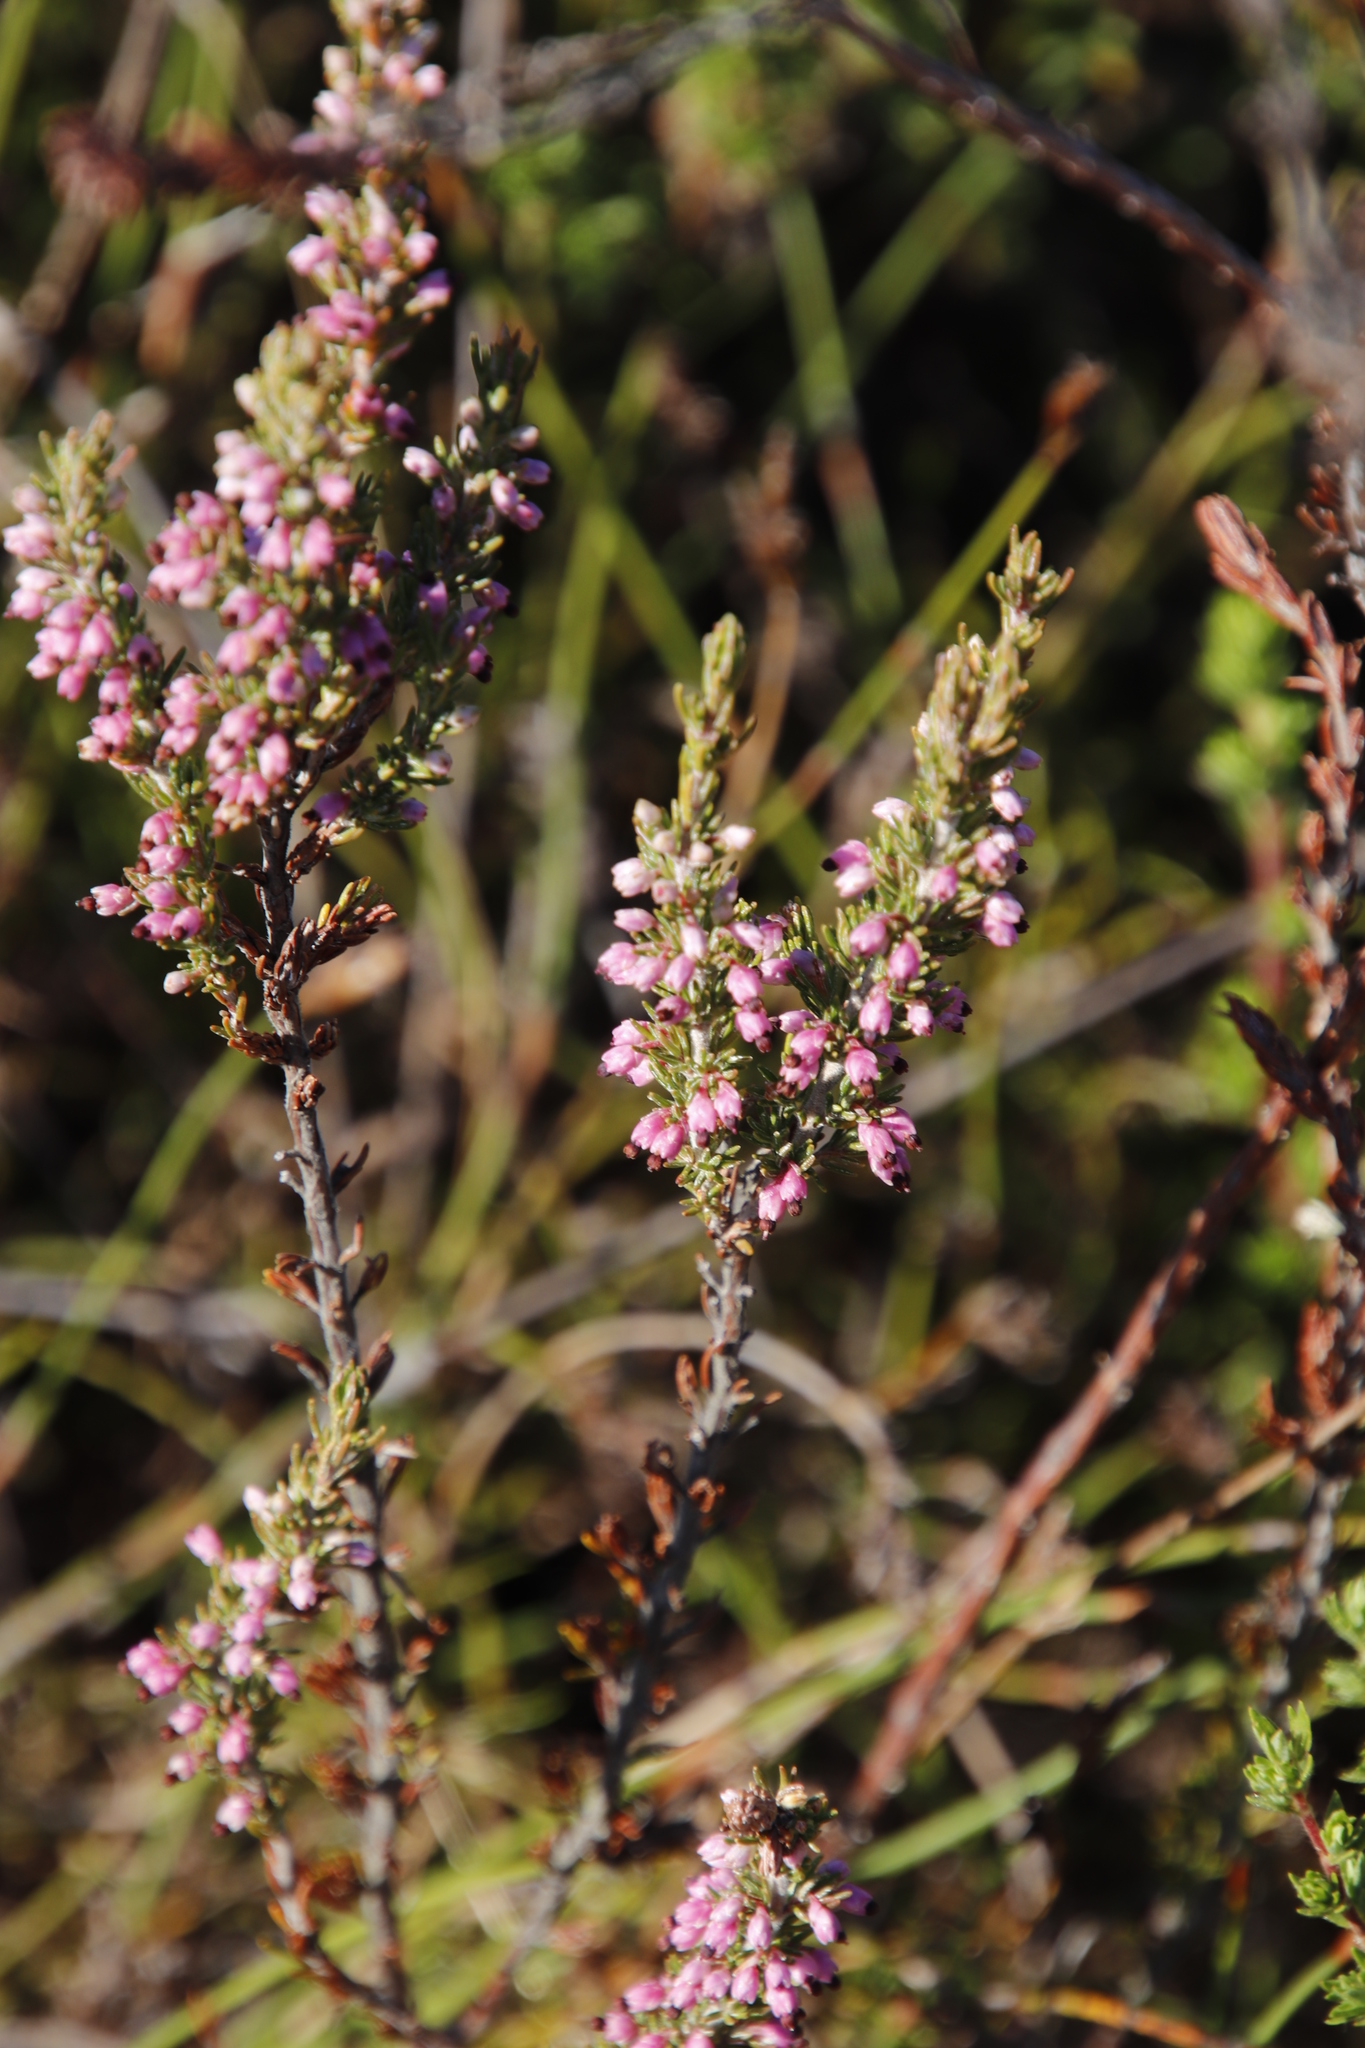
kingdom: Plantae
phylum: Tracheophyta
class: Magnoliopsida
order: Ericales
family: Ericaceae
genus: Erica
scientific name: Erica placentiflora
